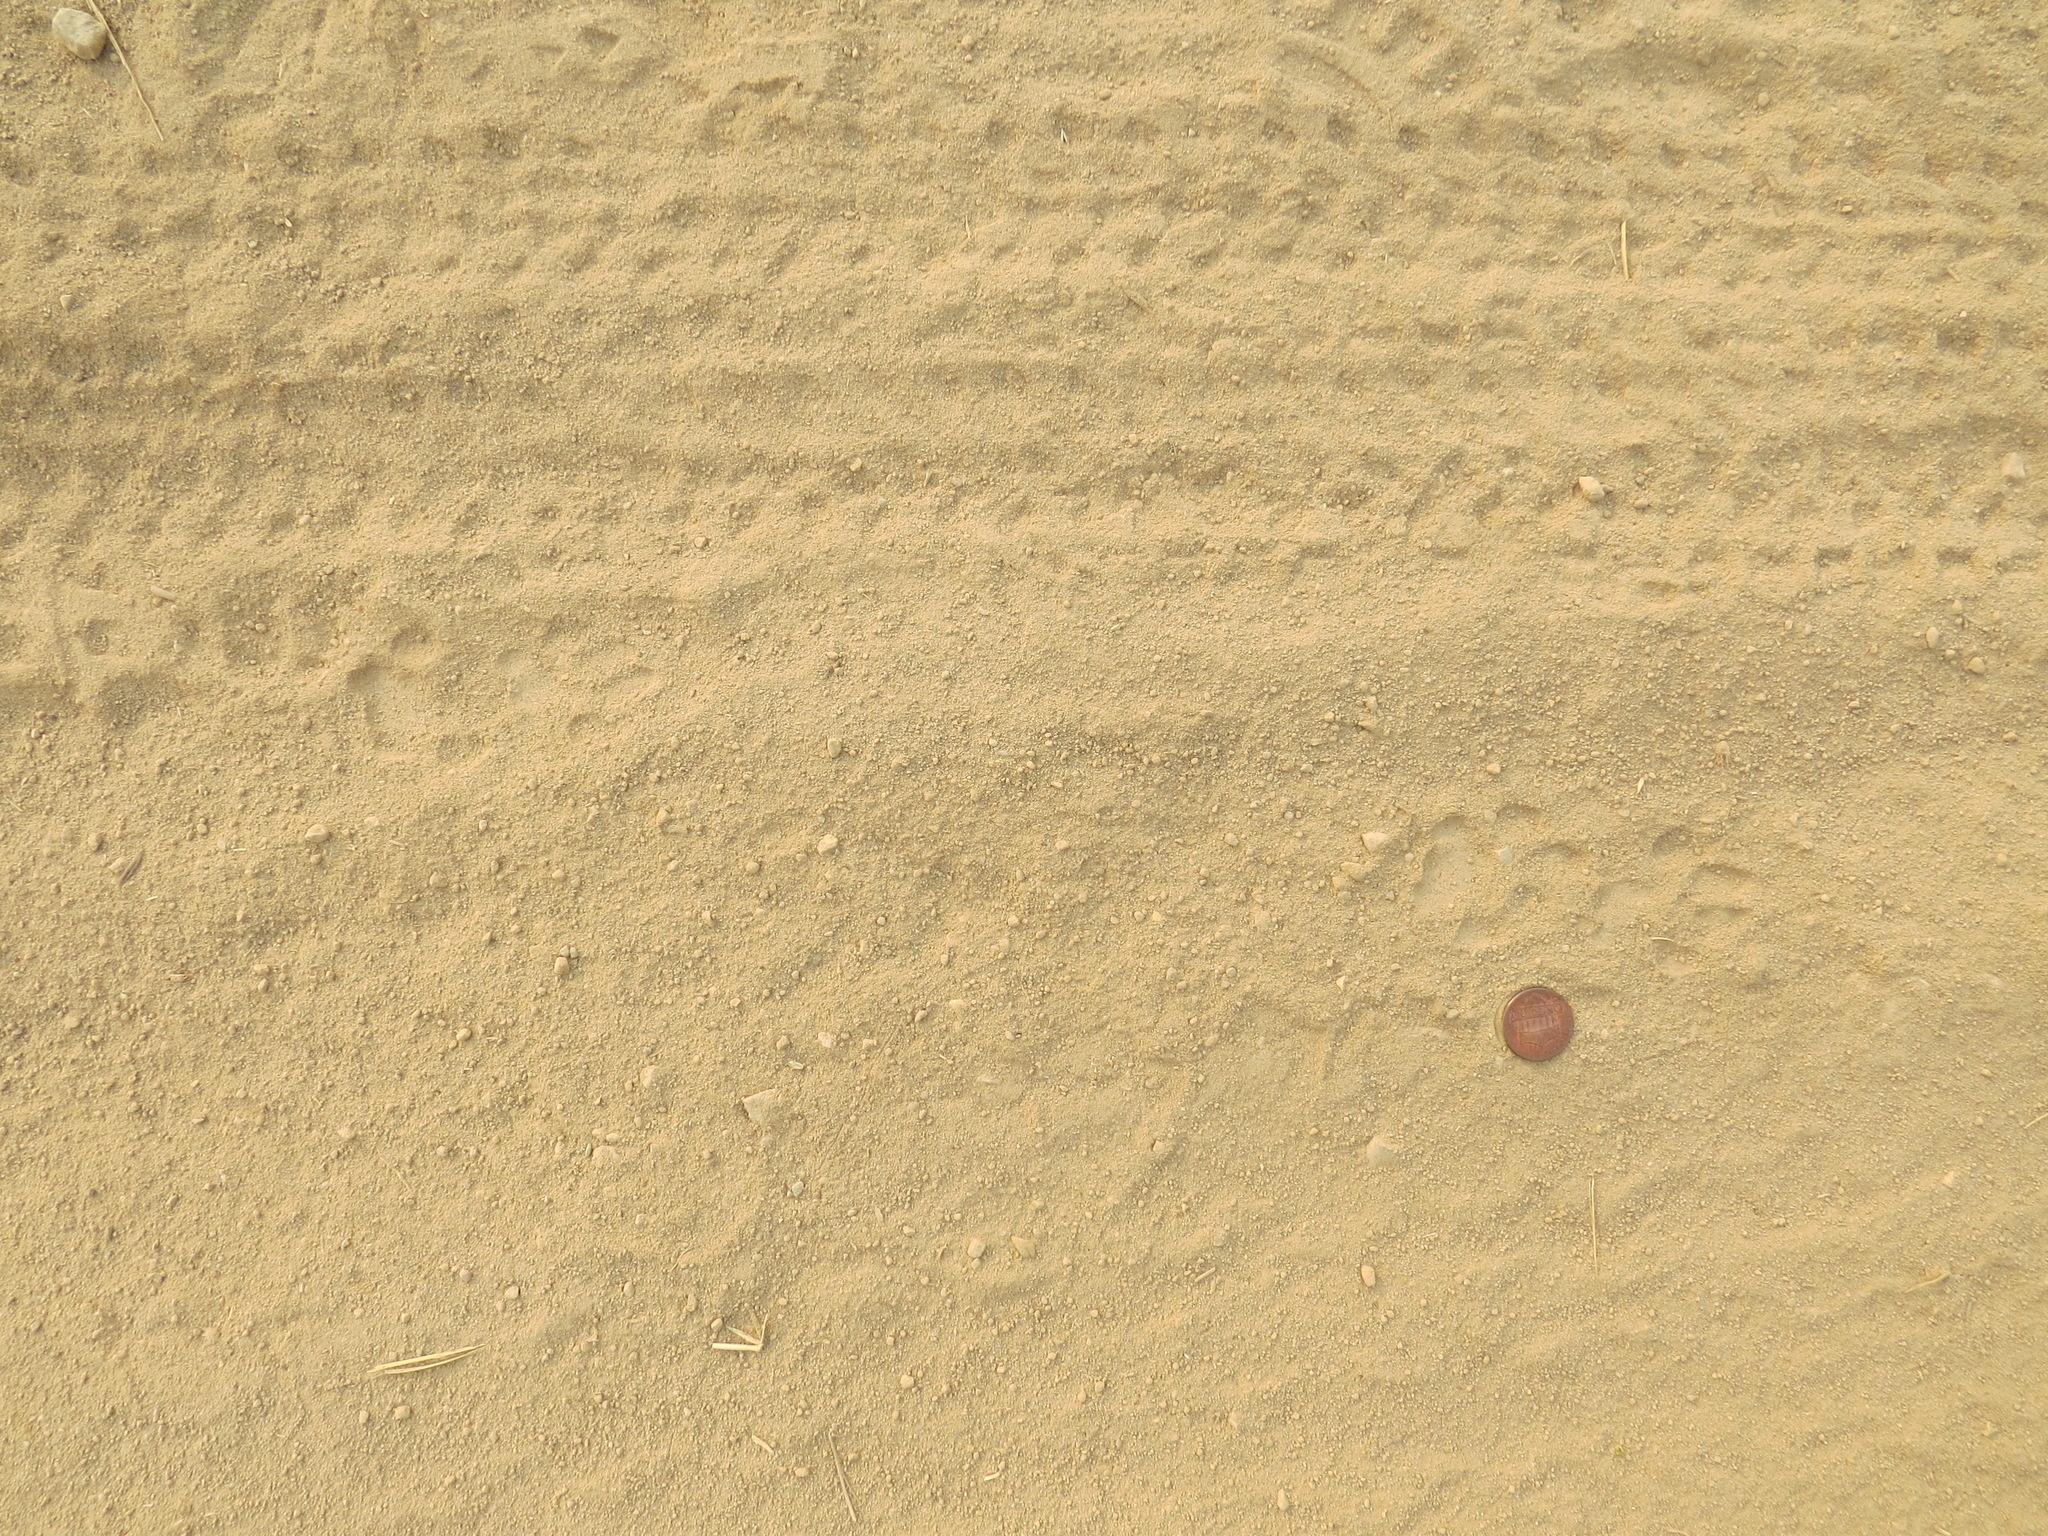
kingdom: Animalia
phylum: Chordata
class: Mammalia
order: Carnivora
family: Felidae
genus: Lynx
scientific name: Lynx rufus
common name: Bobcat
